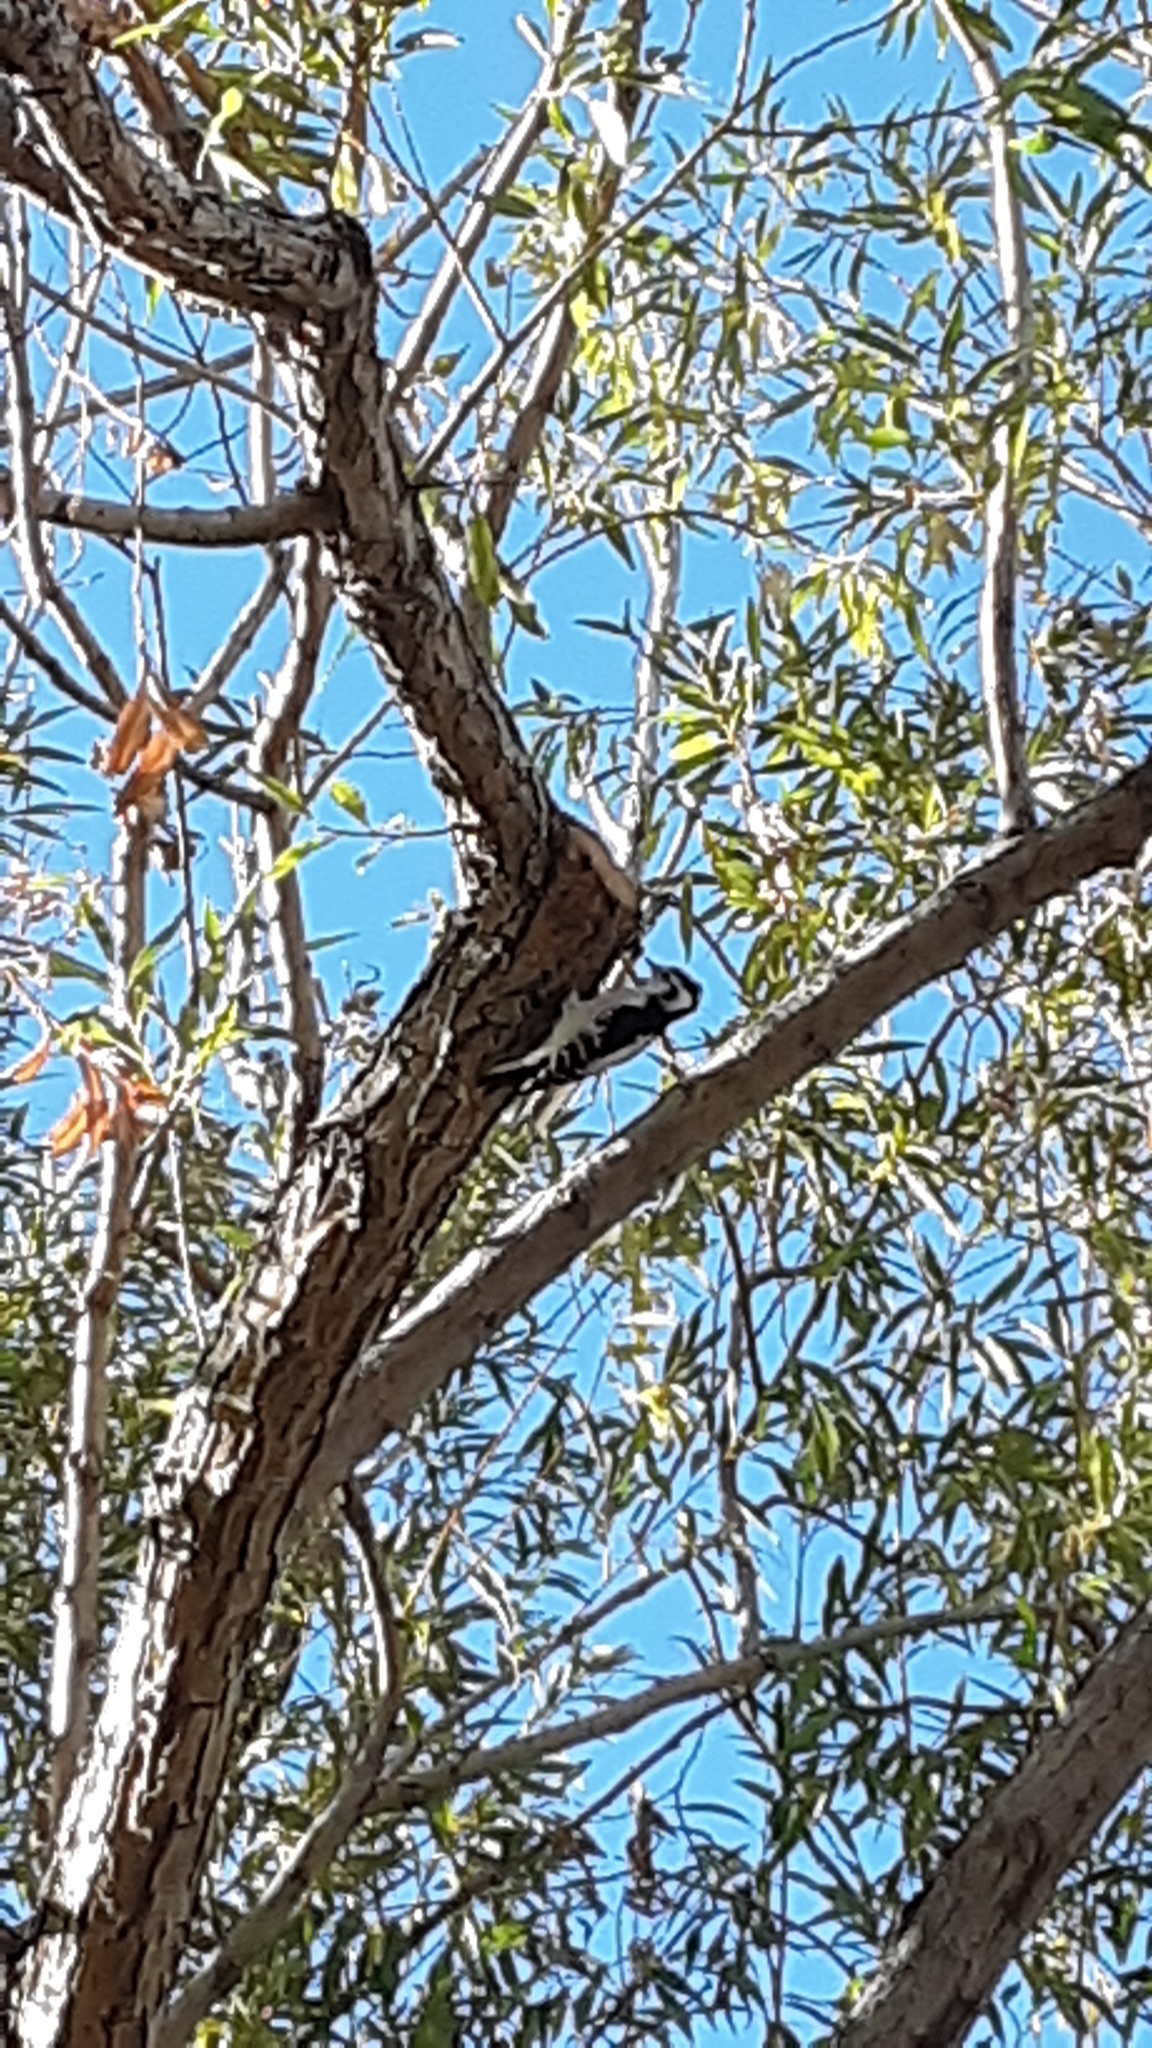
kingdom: Animalia
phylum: Chordata
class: Aves
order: Piciformes
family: Picidae
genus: Dryobates
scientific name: Dryobates pubescens
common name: Downy woodpecker
